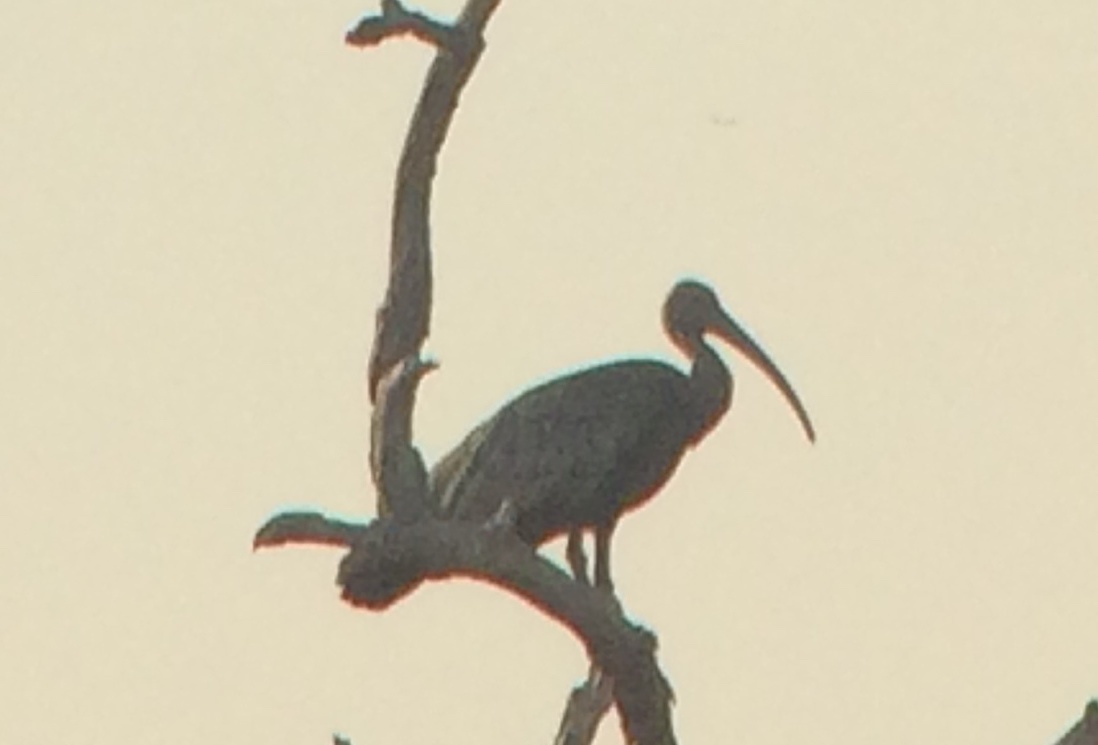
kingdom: Animalia
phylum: Chordata
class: Aves
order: Pelecaniformes
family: Threskiornithidae
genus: Pseudibis
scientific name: Pseudibis gigantea
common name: Giant ibis
